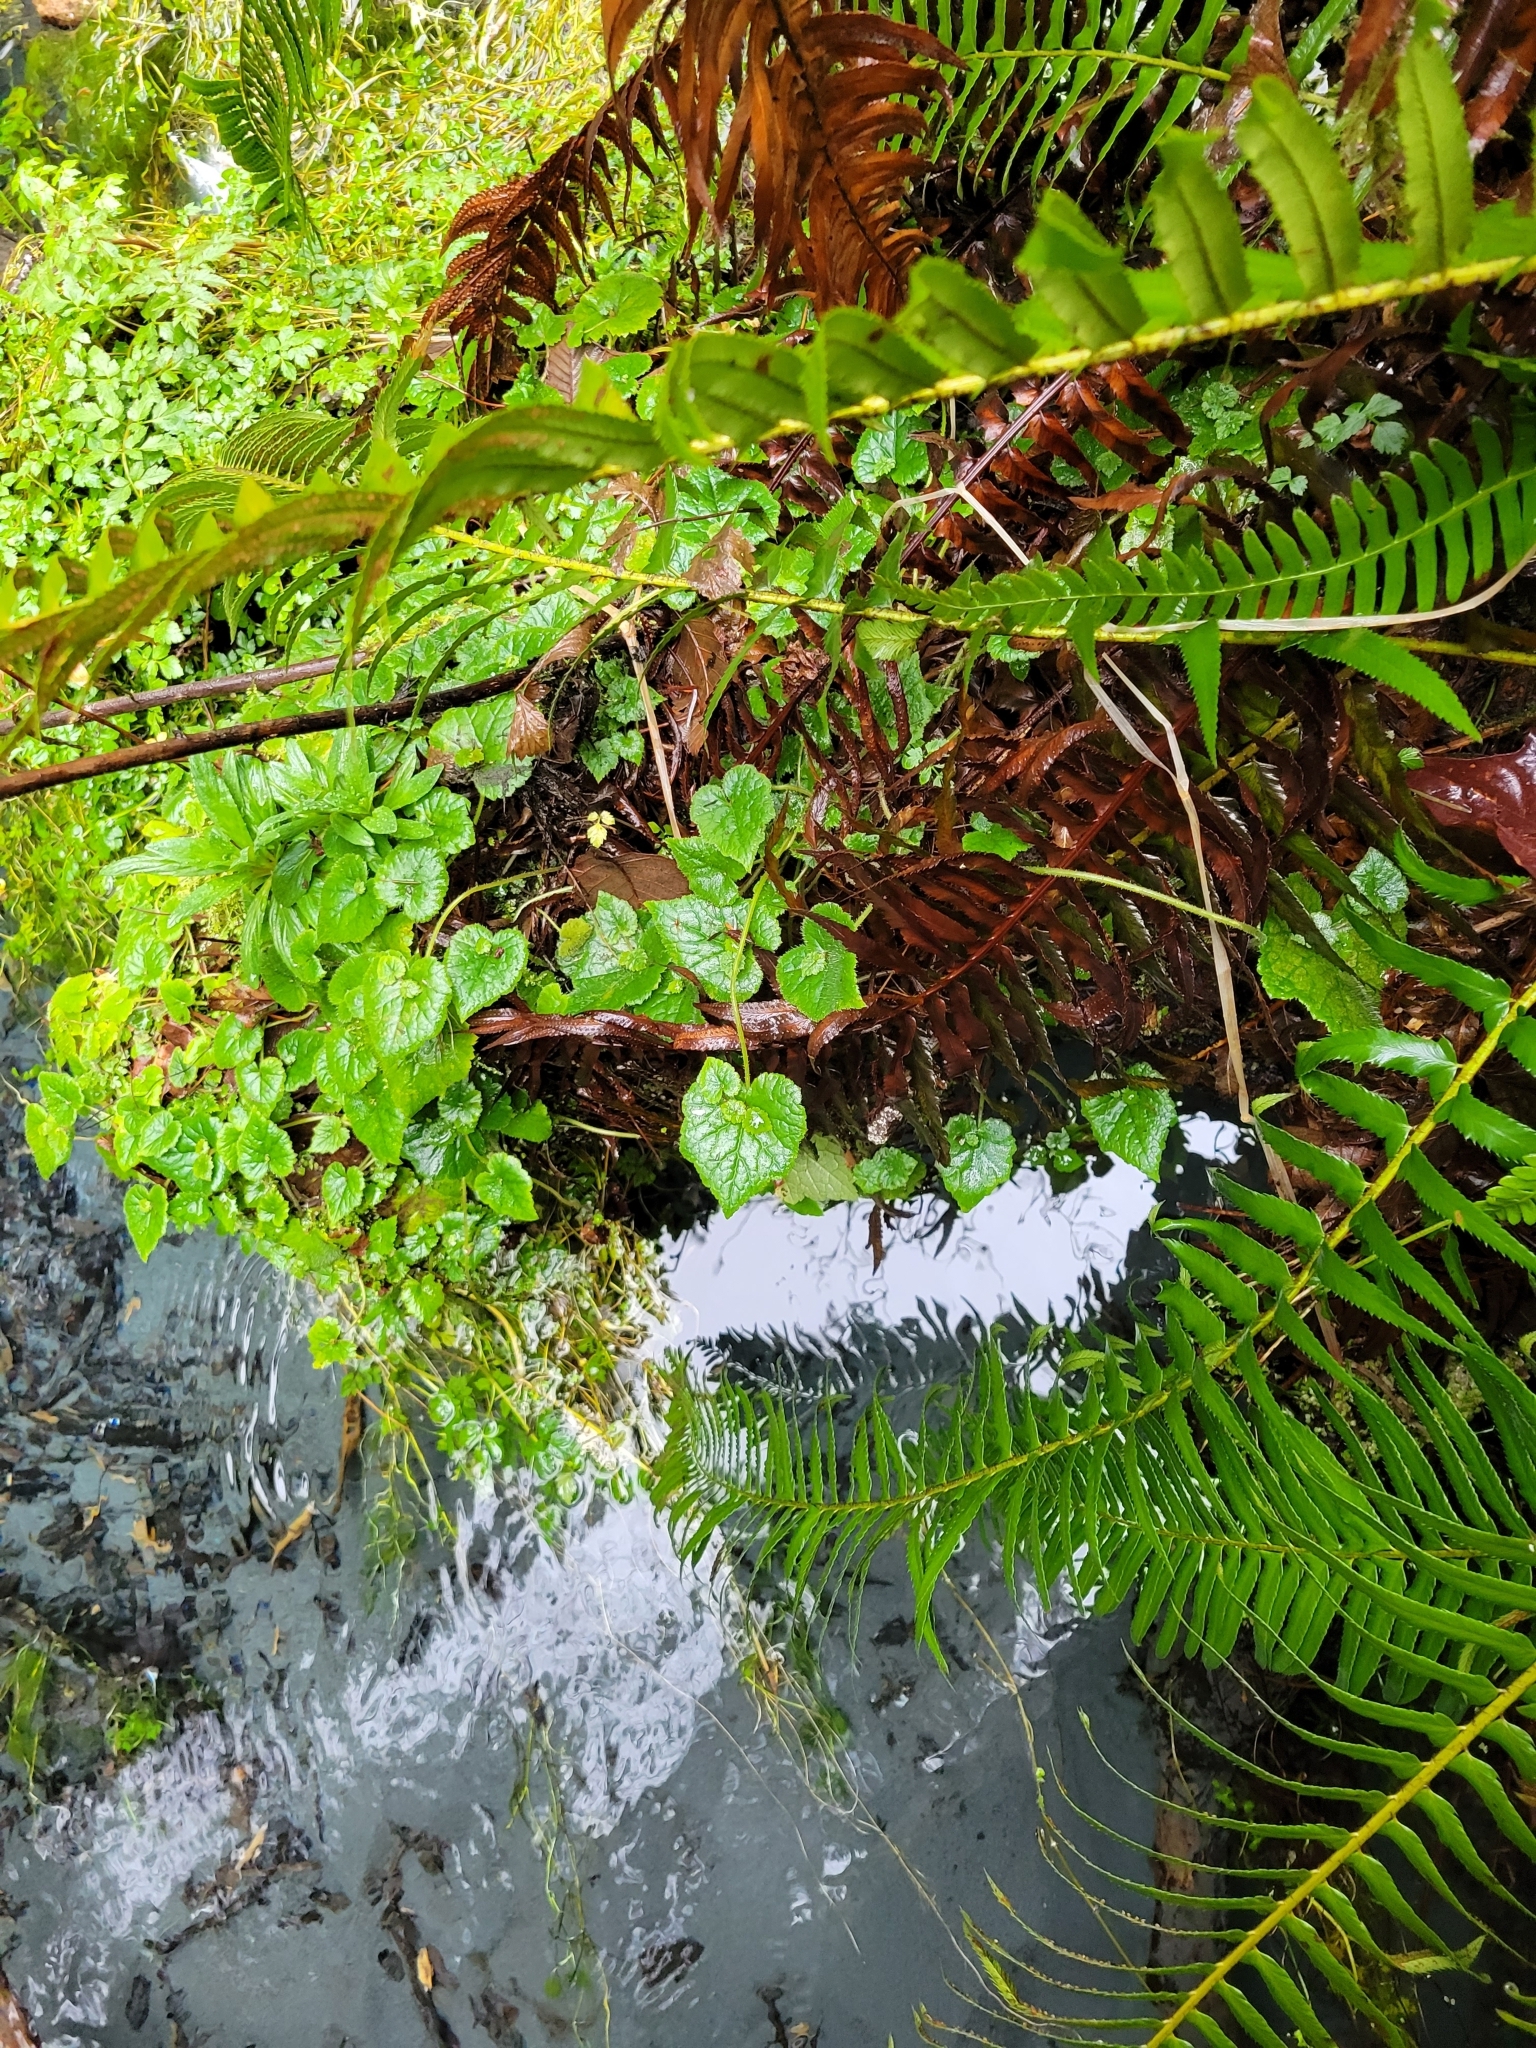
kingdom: Plantae
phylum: Tracheophyta
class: Magnoliopsida
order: Saxifragales
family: Saxifragaceae
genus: Tolmiea
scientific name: Tolmiea menziesii
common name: Pick-a-back-plant
